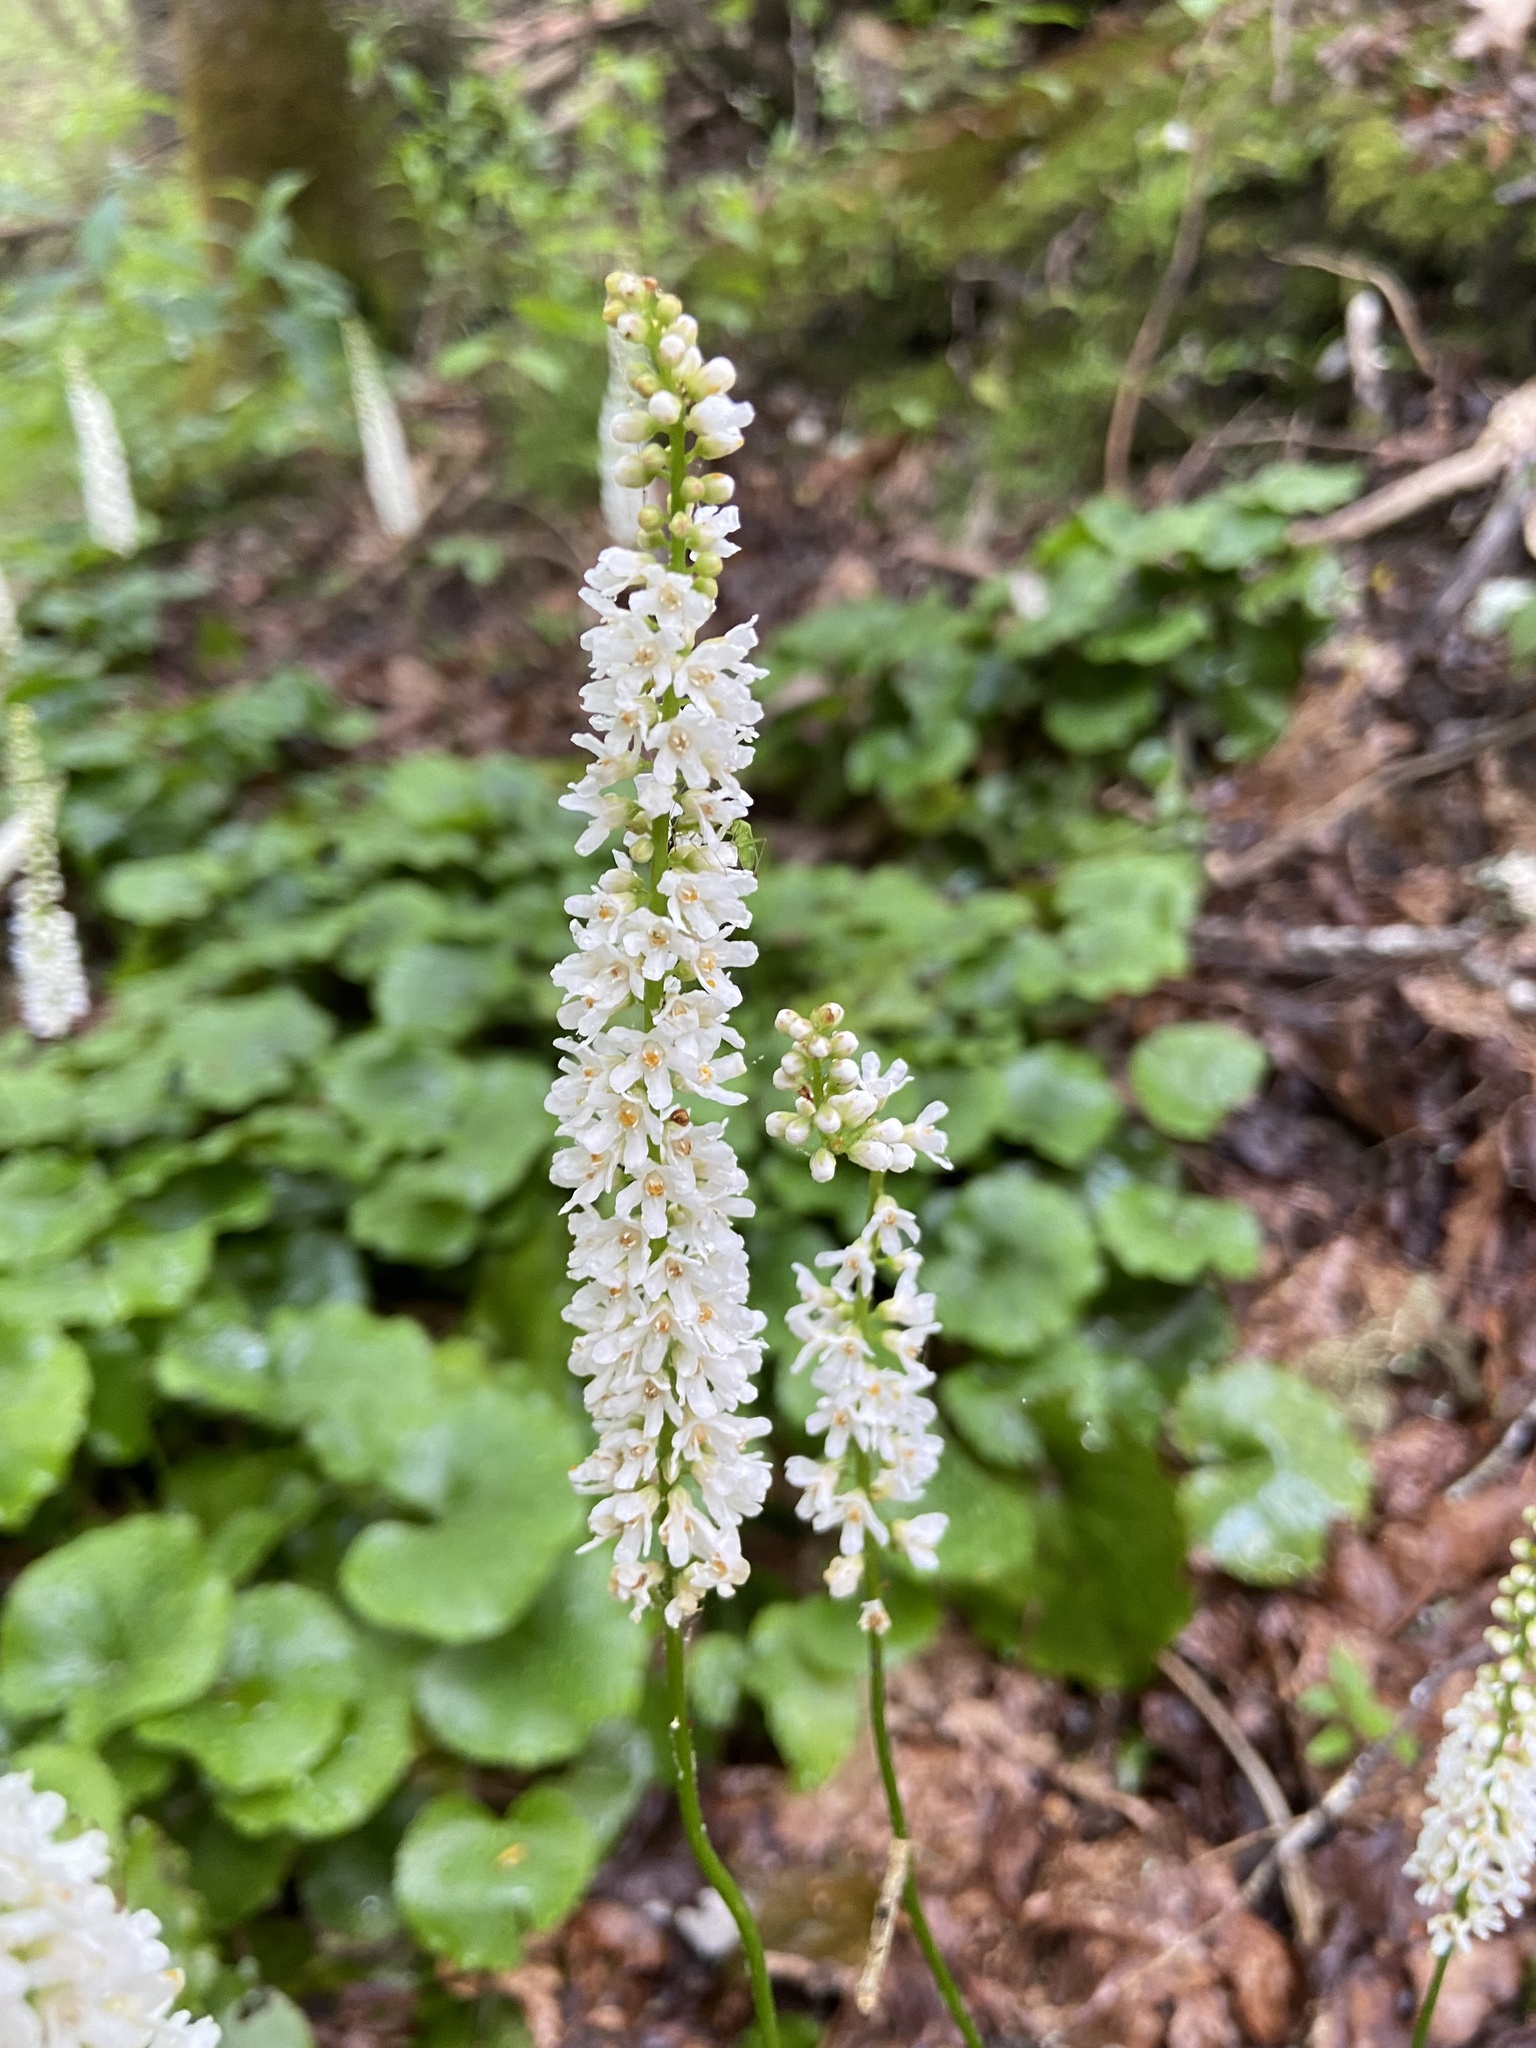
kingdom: Plantae
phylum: Tracheophyta
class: Magnoliopsida
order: Ericales
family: Diapensiaceae
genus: Galax
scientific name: Galax urceolata
